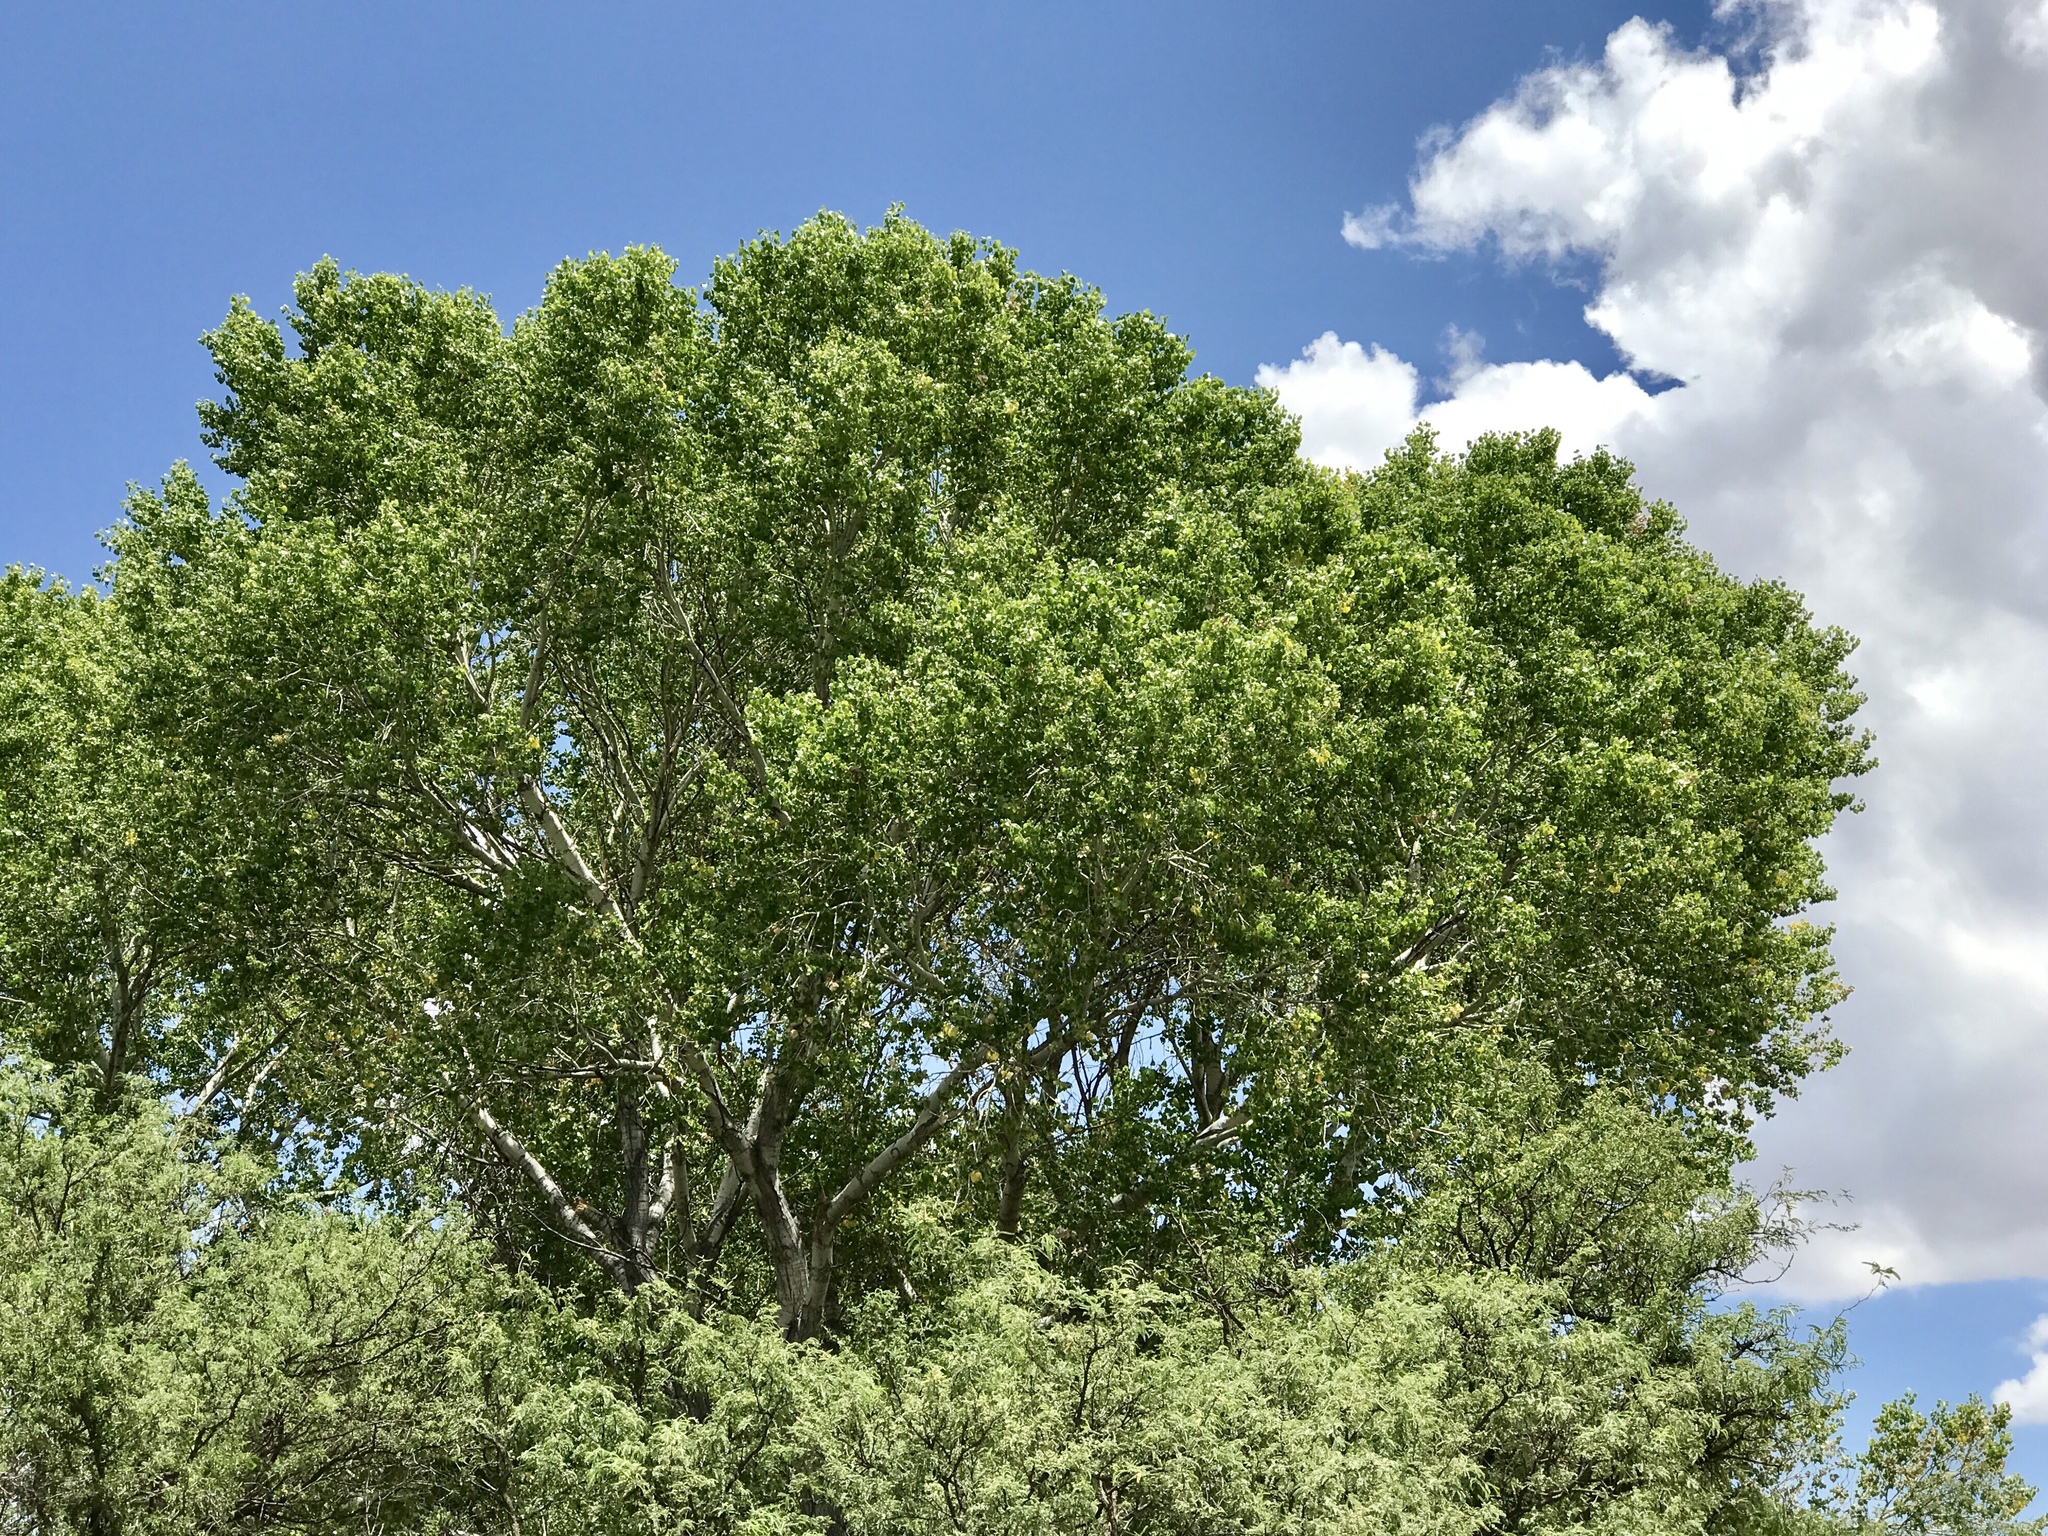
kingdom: Plantae
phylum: Tracheophyta
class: Magnoliopsida
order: Malpighiales
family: Salicaceae
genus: Populus
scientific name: Populus fremontii
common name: Fremont's cottonwood
